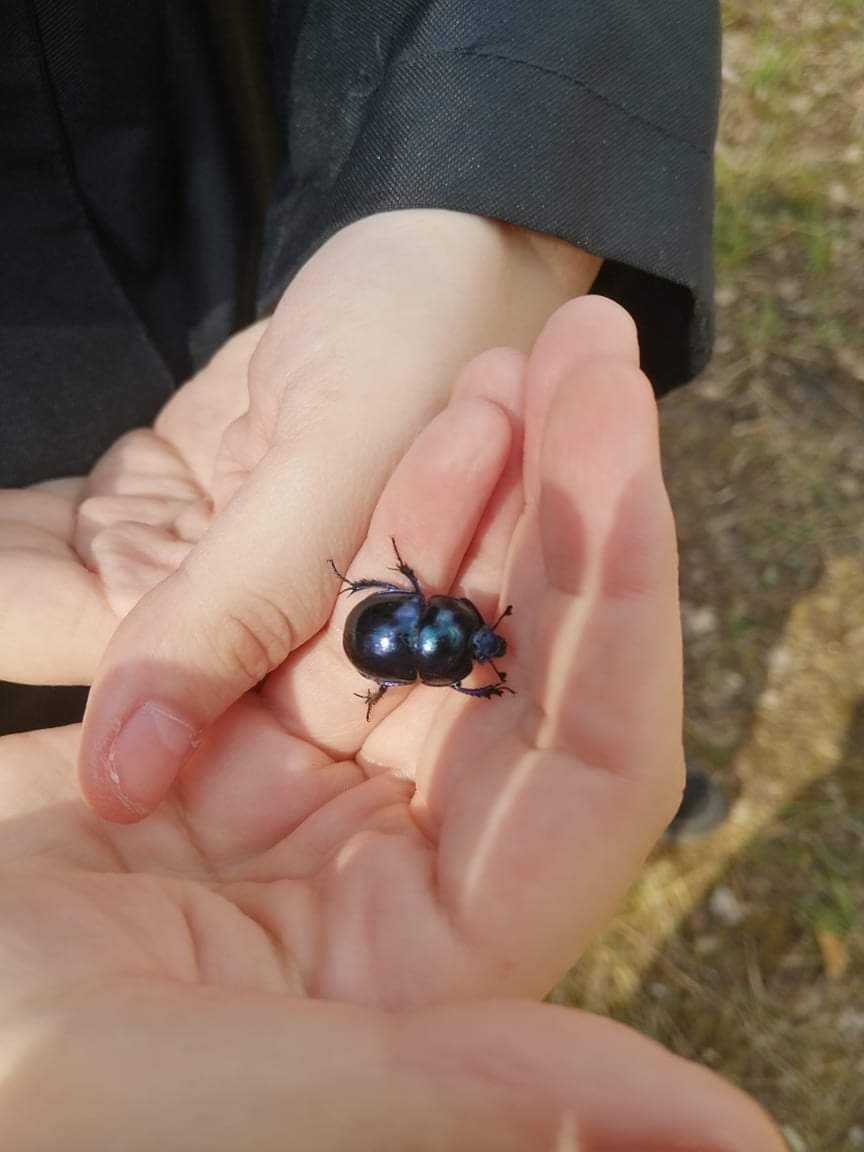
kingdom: Animalia
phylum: Arthropoda
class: Insecta
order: Coleoptera
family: Geotrupidae
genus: Trypocopris
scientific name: Trypocopris vernalis
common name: Spring dumbledor
